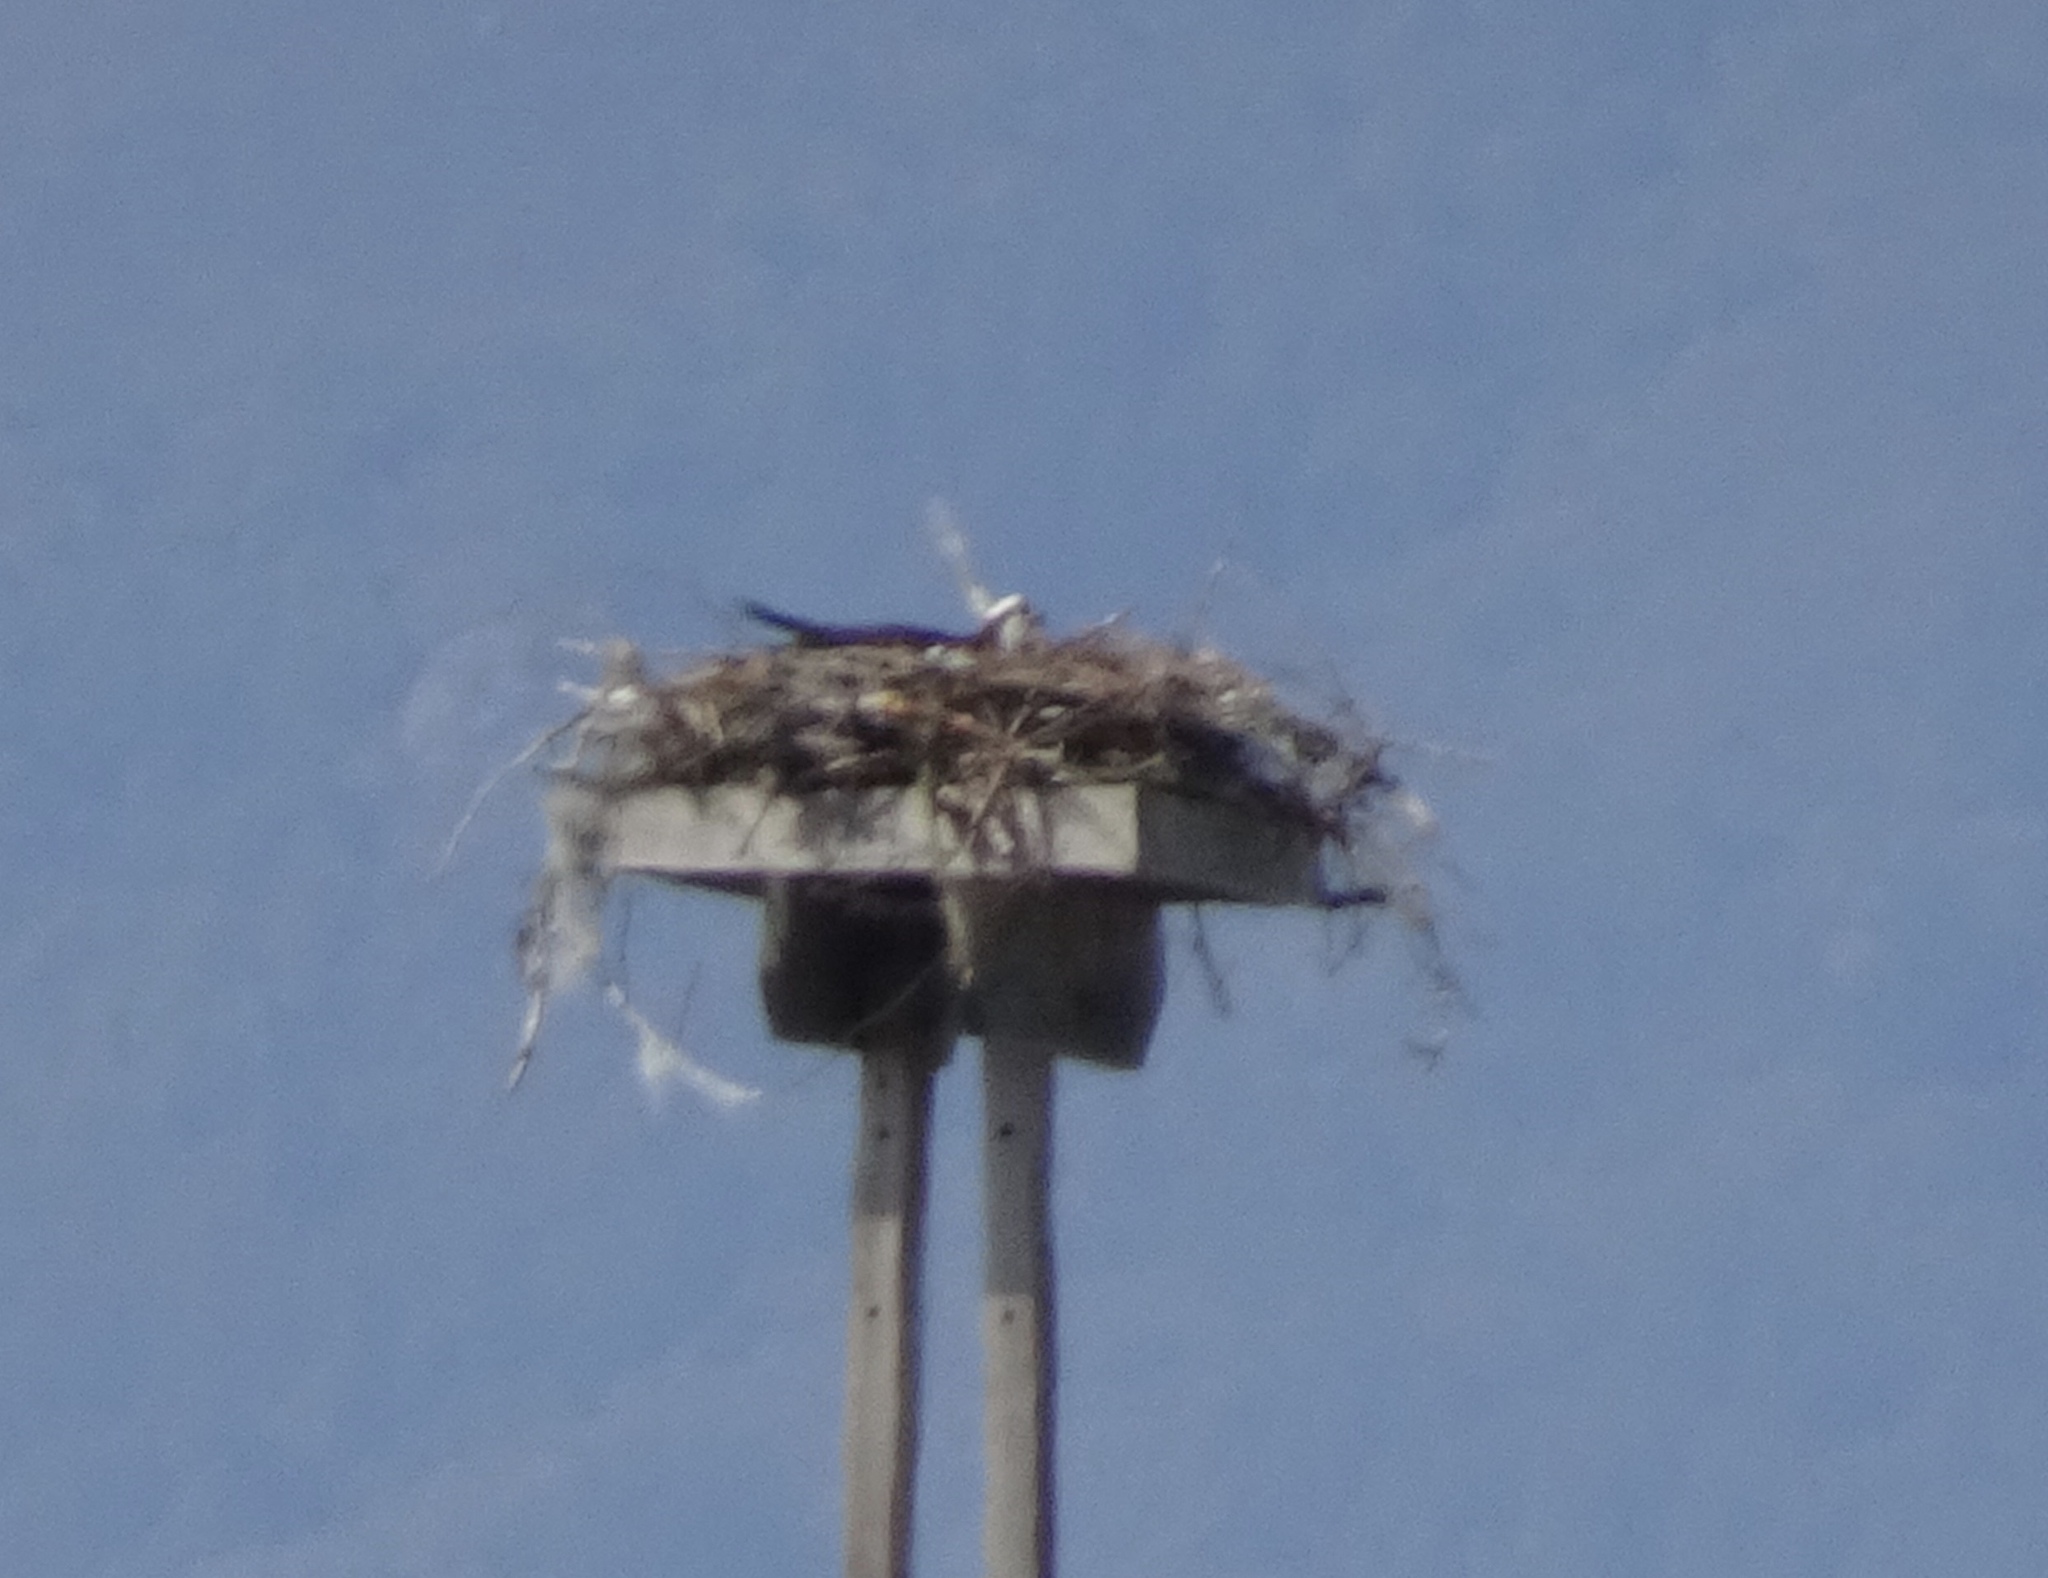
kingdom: Animalia
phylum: Chordata
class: Aves
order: Accipitriformes
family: Pandionidae
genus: Pandion
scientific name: Pandion haliaetus
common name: Osprey
